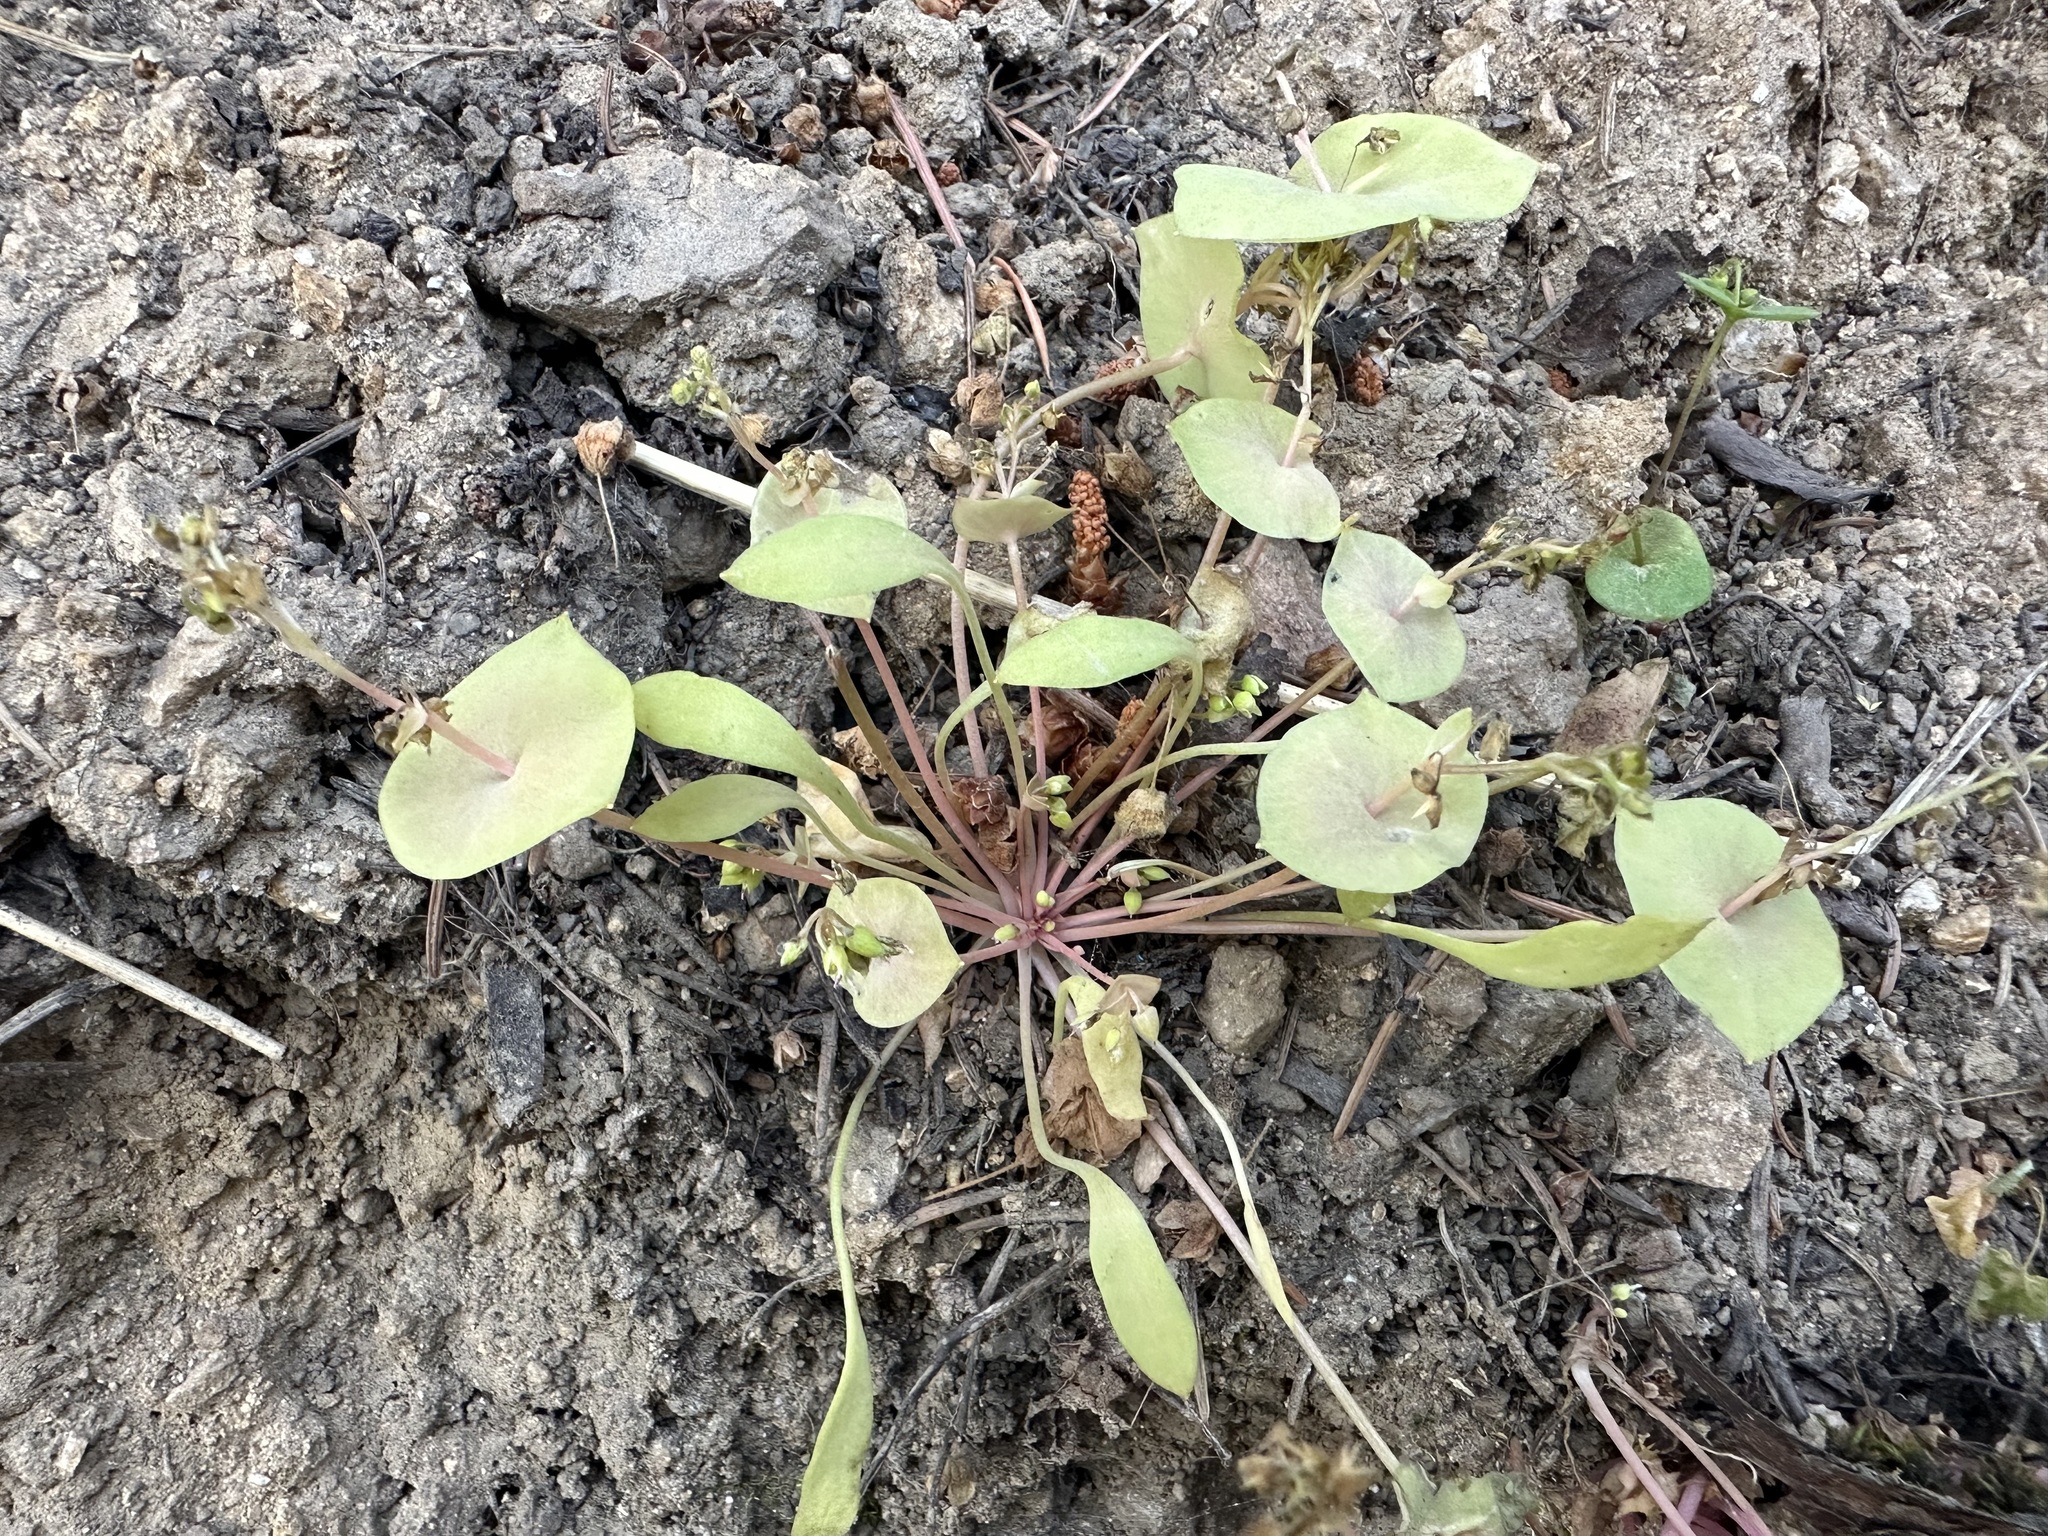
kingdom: Plantae
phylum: Tracheophyta
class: Magnoliopsida
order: Caryophyllales
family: Montiaceae
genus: Claytonia
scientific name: Claytonia perfoliata
